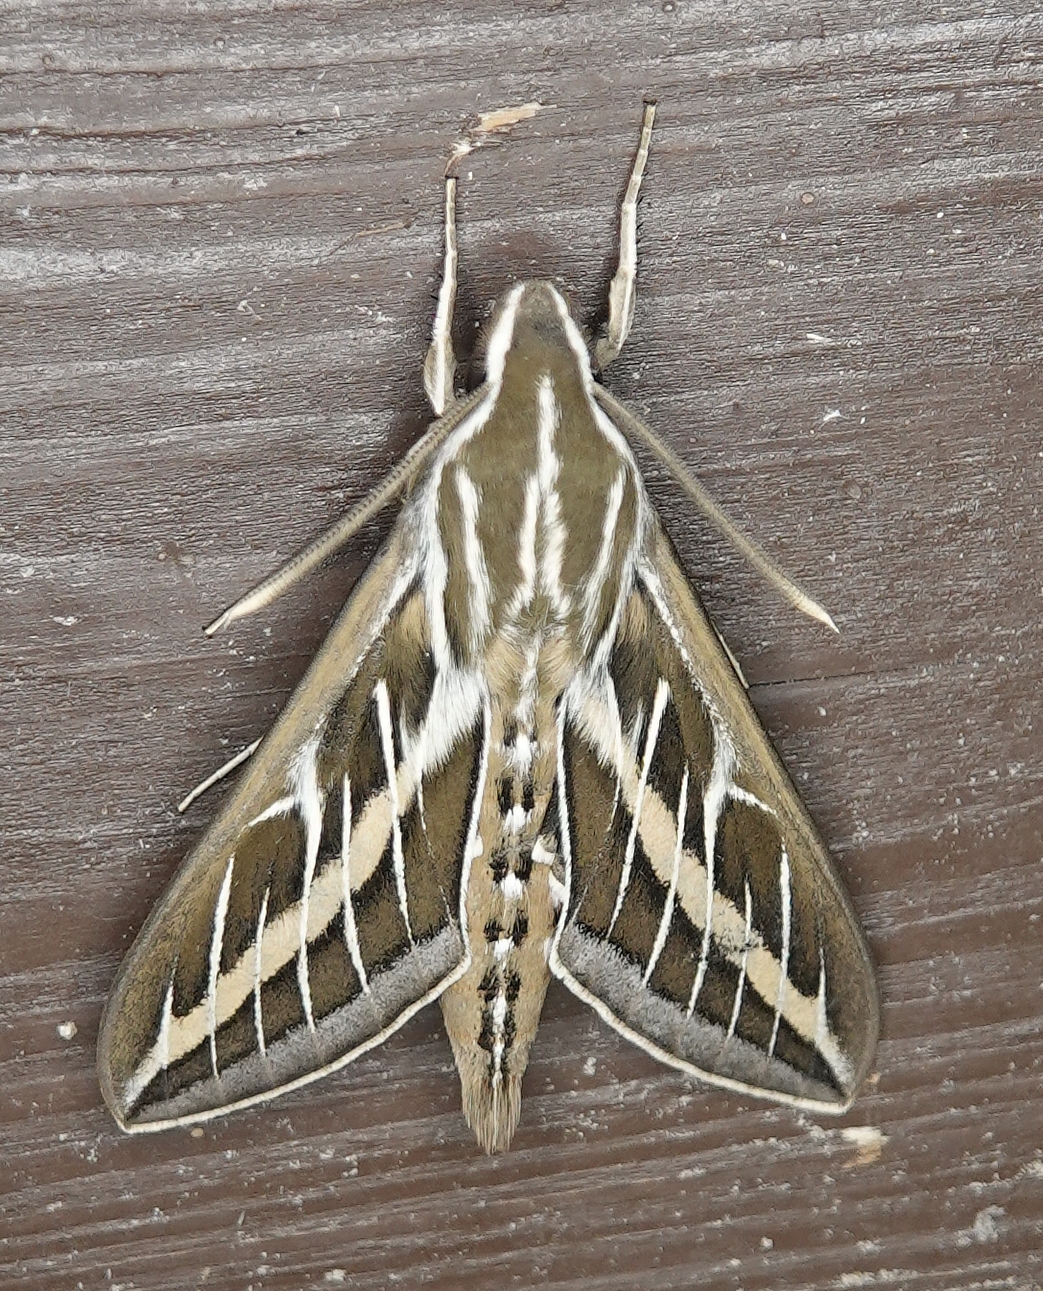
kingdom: Animalia
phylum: Arthropoda
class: Insecta
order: Lepidoptera
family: Sphingidae
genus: Hyles
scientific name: Hyles lineata
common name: White-lined sphinx
